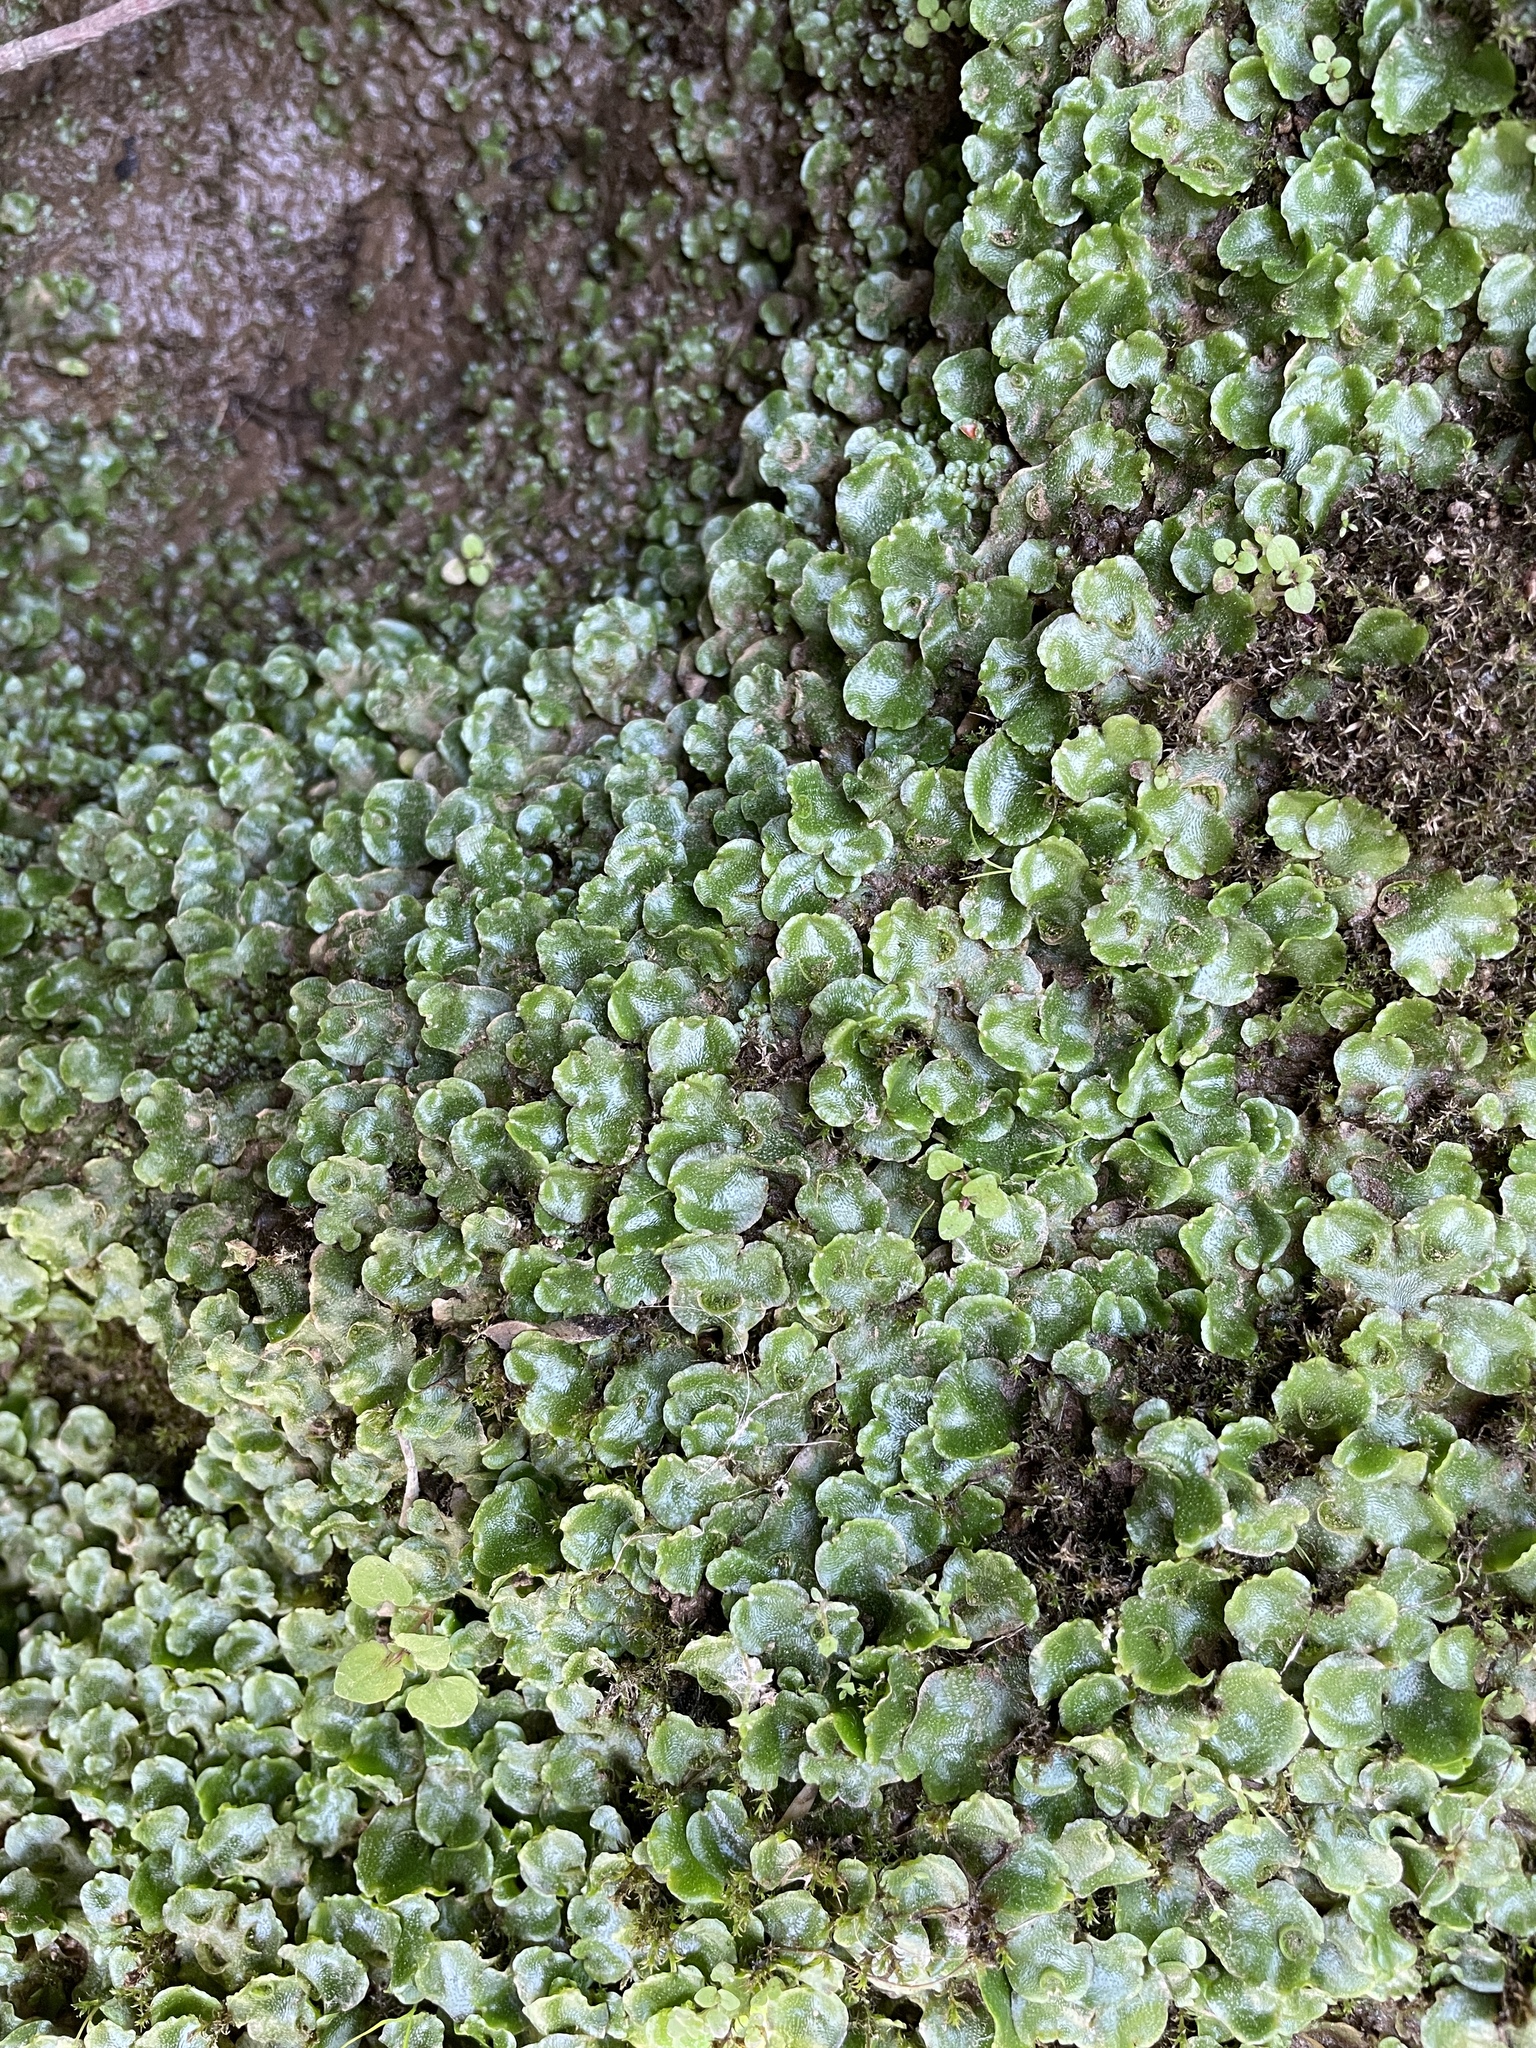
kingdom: Plantae
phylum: Marchantiophyta
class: Marchantiopsida
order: Lunulariales
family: Lunulariaceae
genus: Lunularia
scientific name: Lunularia cruciata
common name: Crescent-cup liverwort
